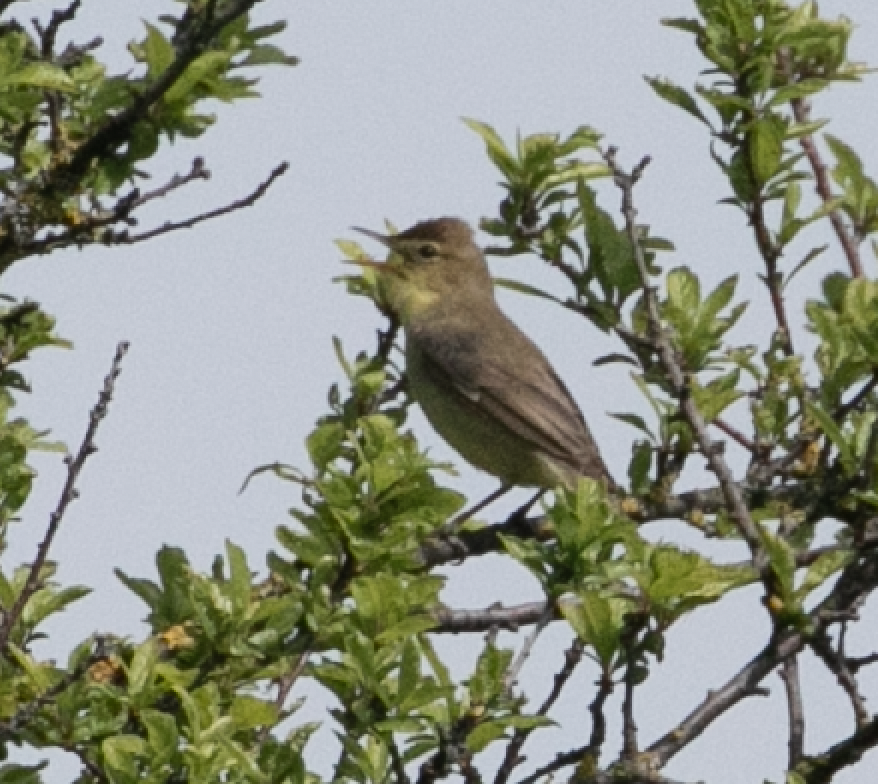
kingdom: Animalia
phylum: Chordata
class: Aves
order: Passeriformes
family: Acrocephalidae
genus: Hippolais
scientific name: Hippolais polyglotta
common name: Melodious warbler
